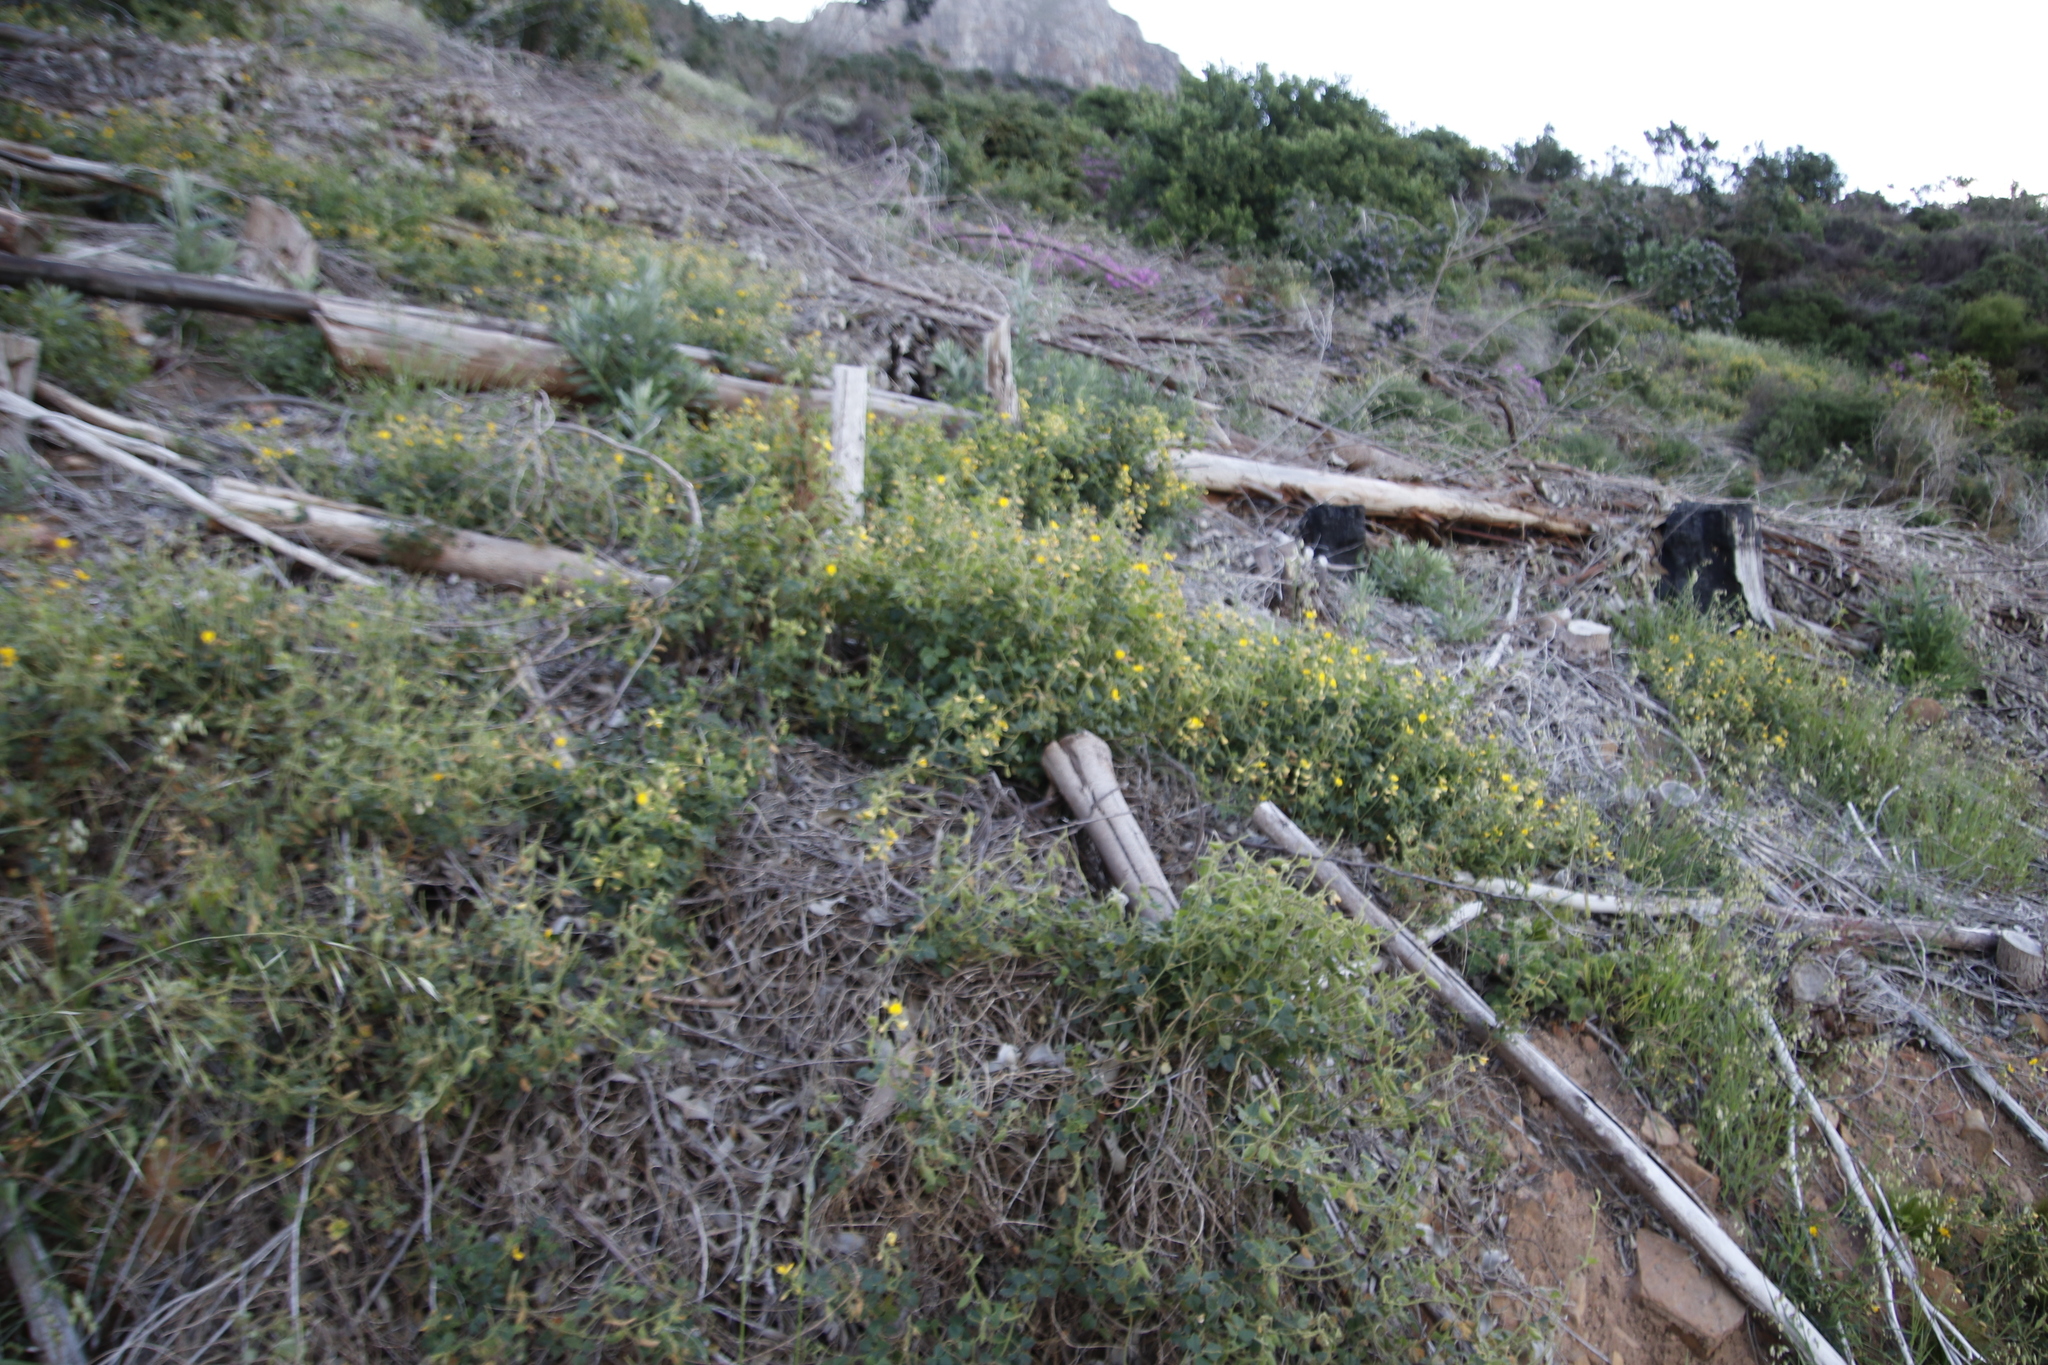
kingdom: Plantae
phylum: Tracheophyta
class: Magnoliopsida
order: Fabales
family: Fabaceae
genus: Bolusafra
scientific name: Bolusafra bituminosa
